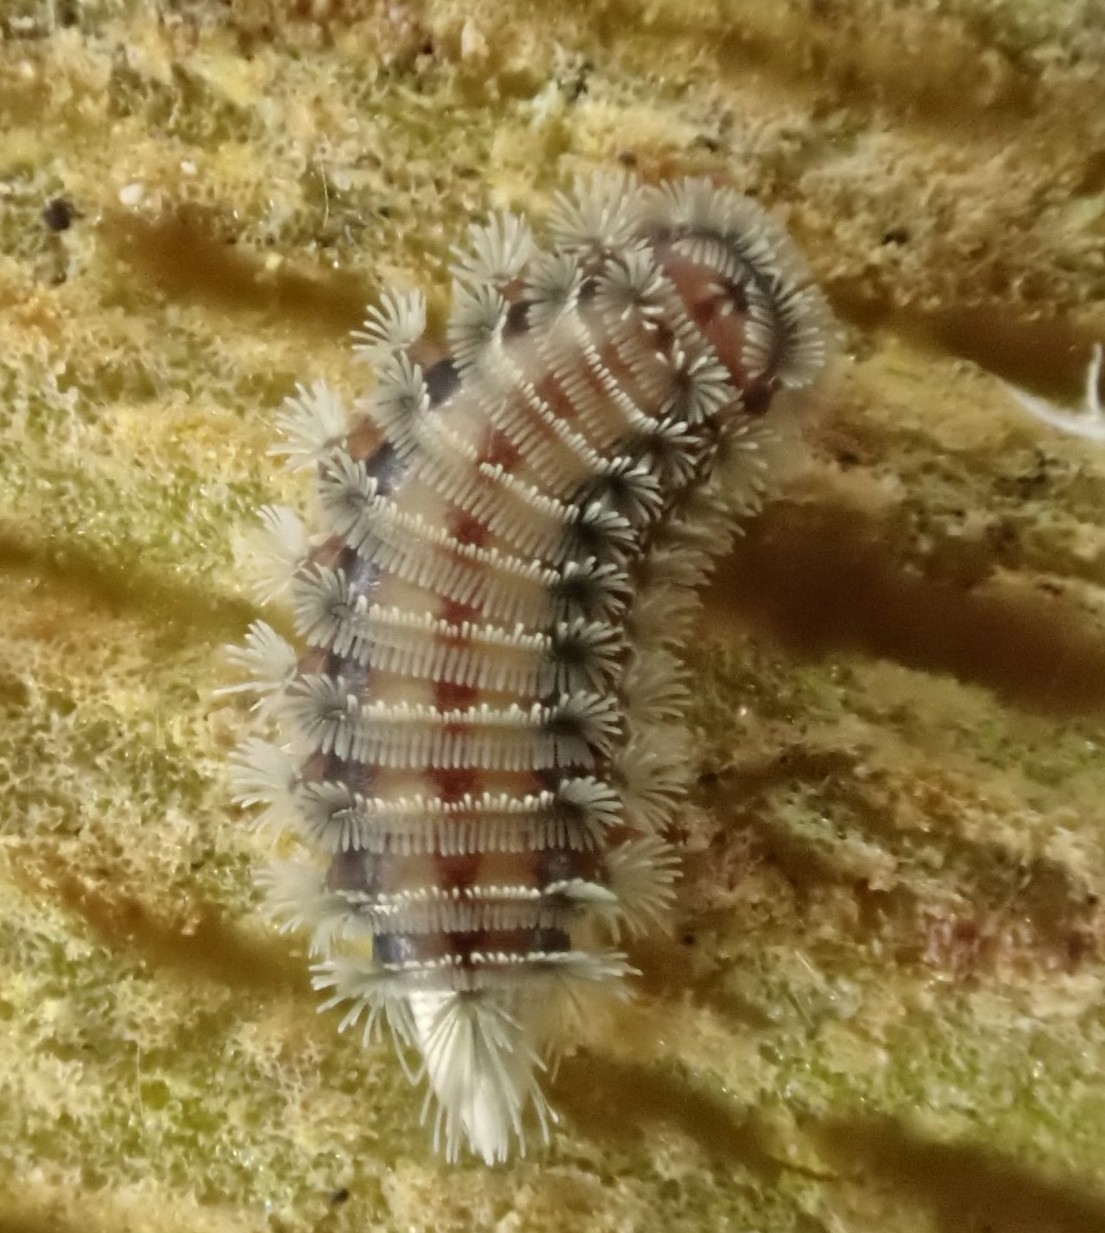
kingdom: Animalia
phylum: Arthropoda
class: Diplopoda
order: Polyxenida
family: Polyxenidae
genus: Polyxenus
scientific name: Polyxenus lagurus
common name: Bristly millipede
